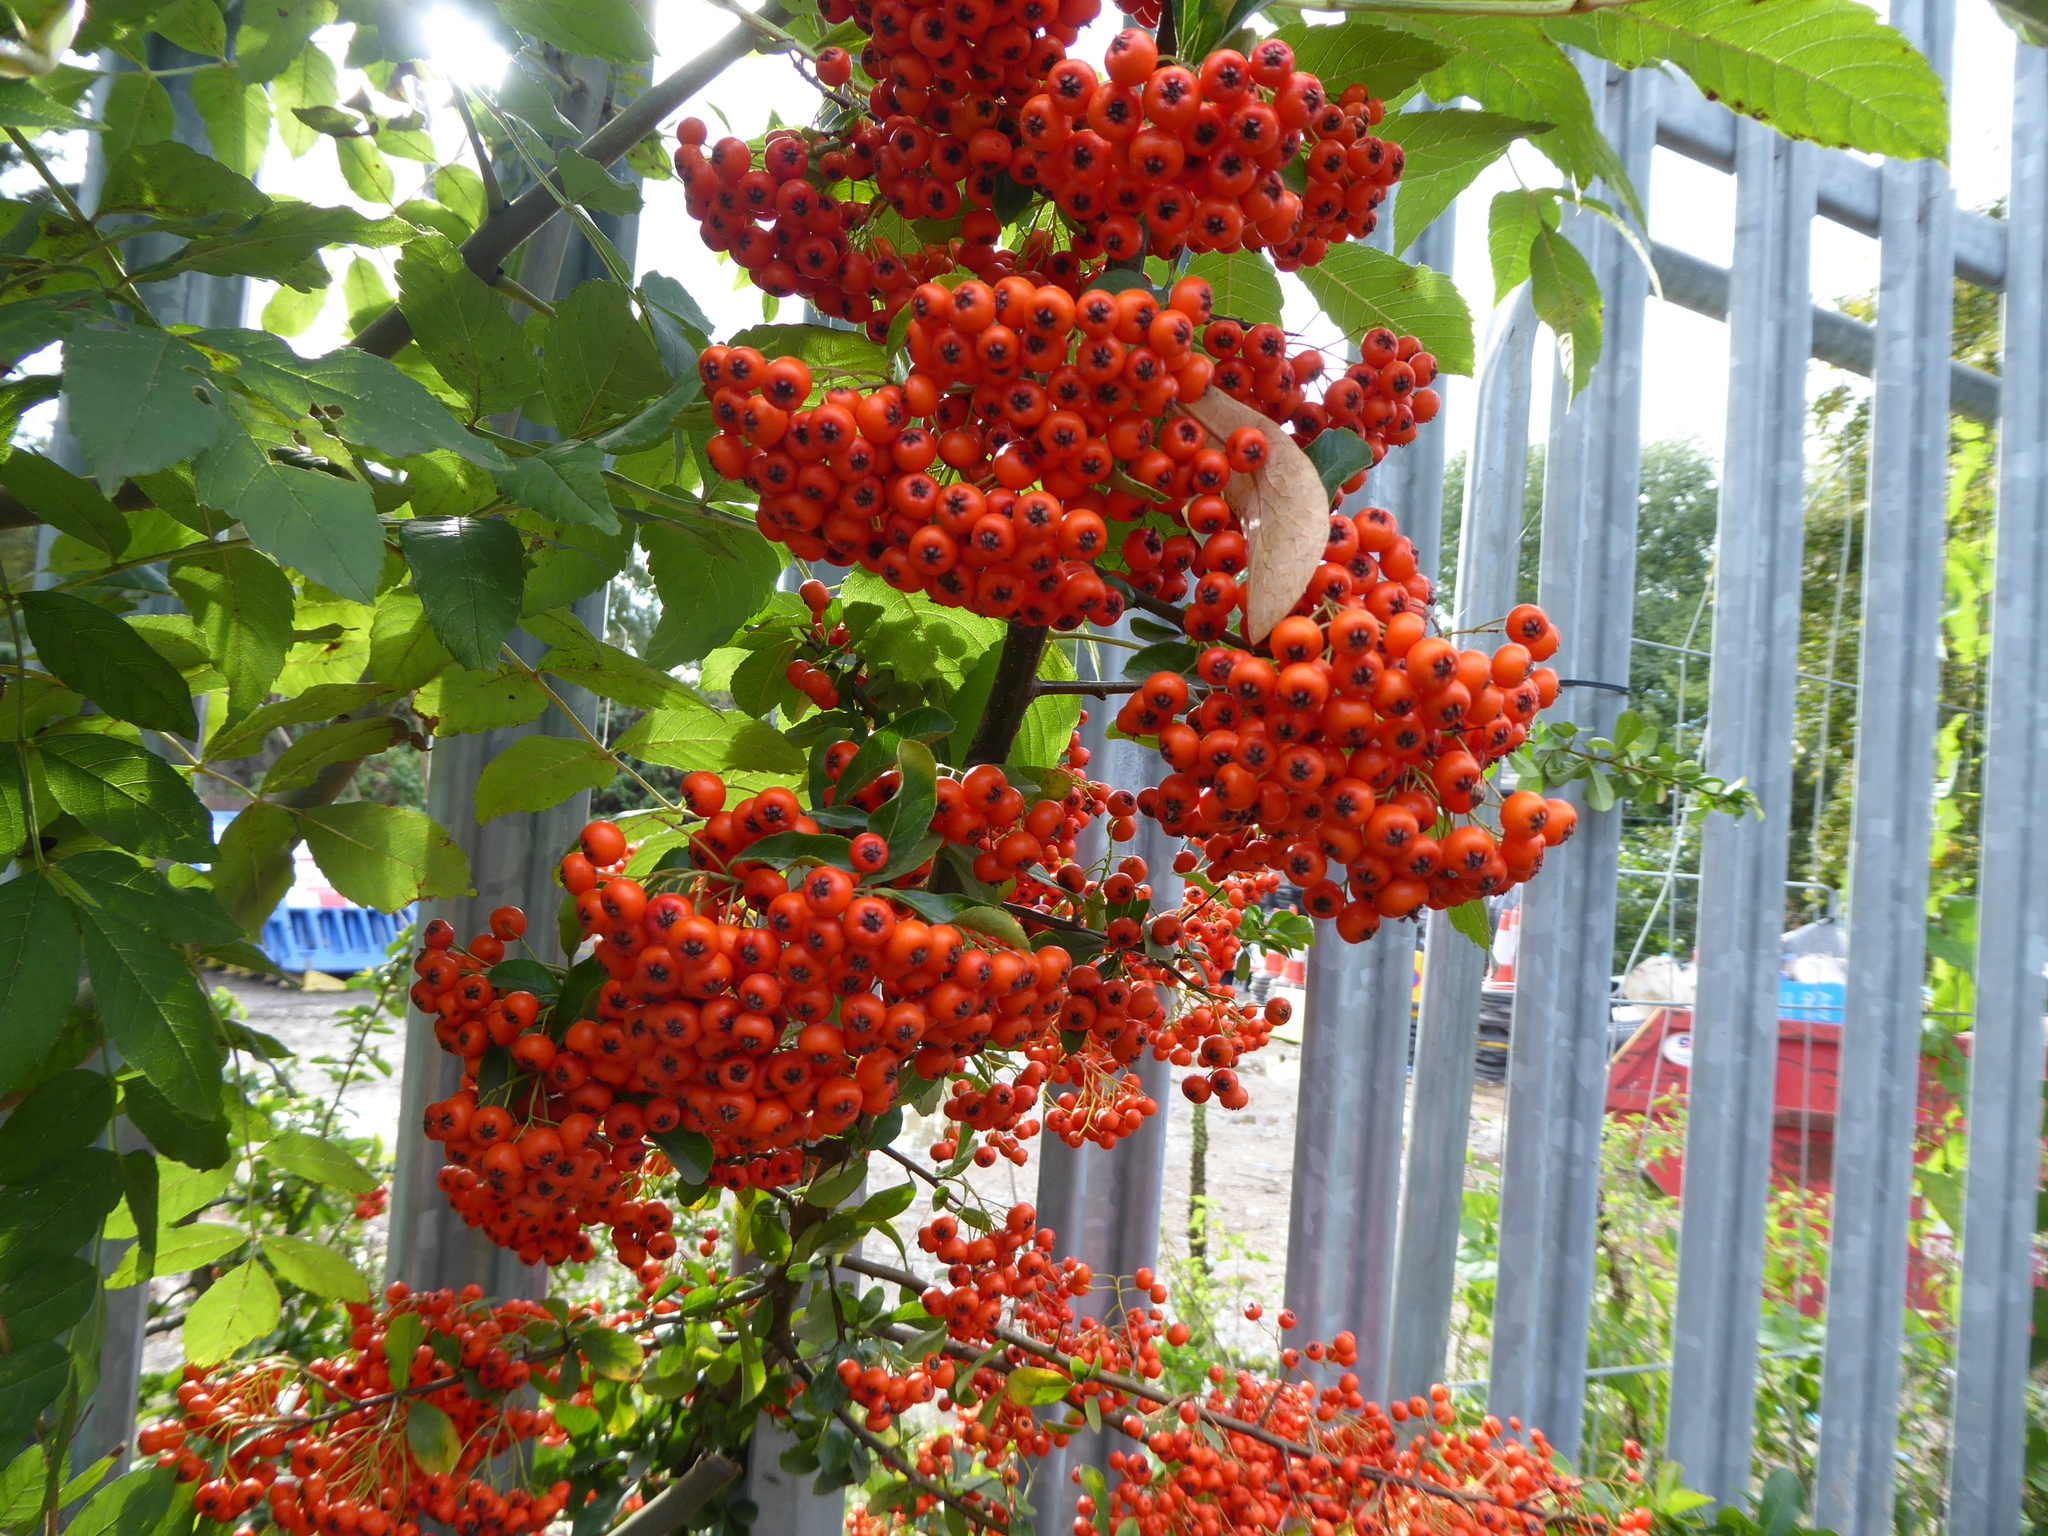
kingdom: Plantae
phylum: Tracheophyta
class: Magnoliopsida
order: Rosales
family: Rosaceae
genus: Pyracantha
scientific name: Pyracantha coccinea
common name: Firethorn
